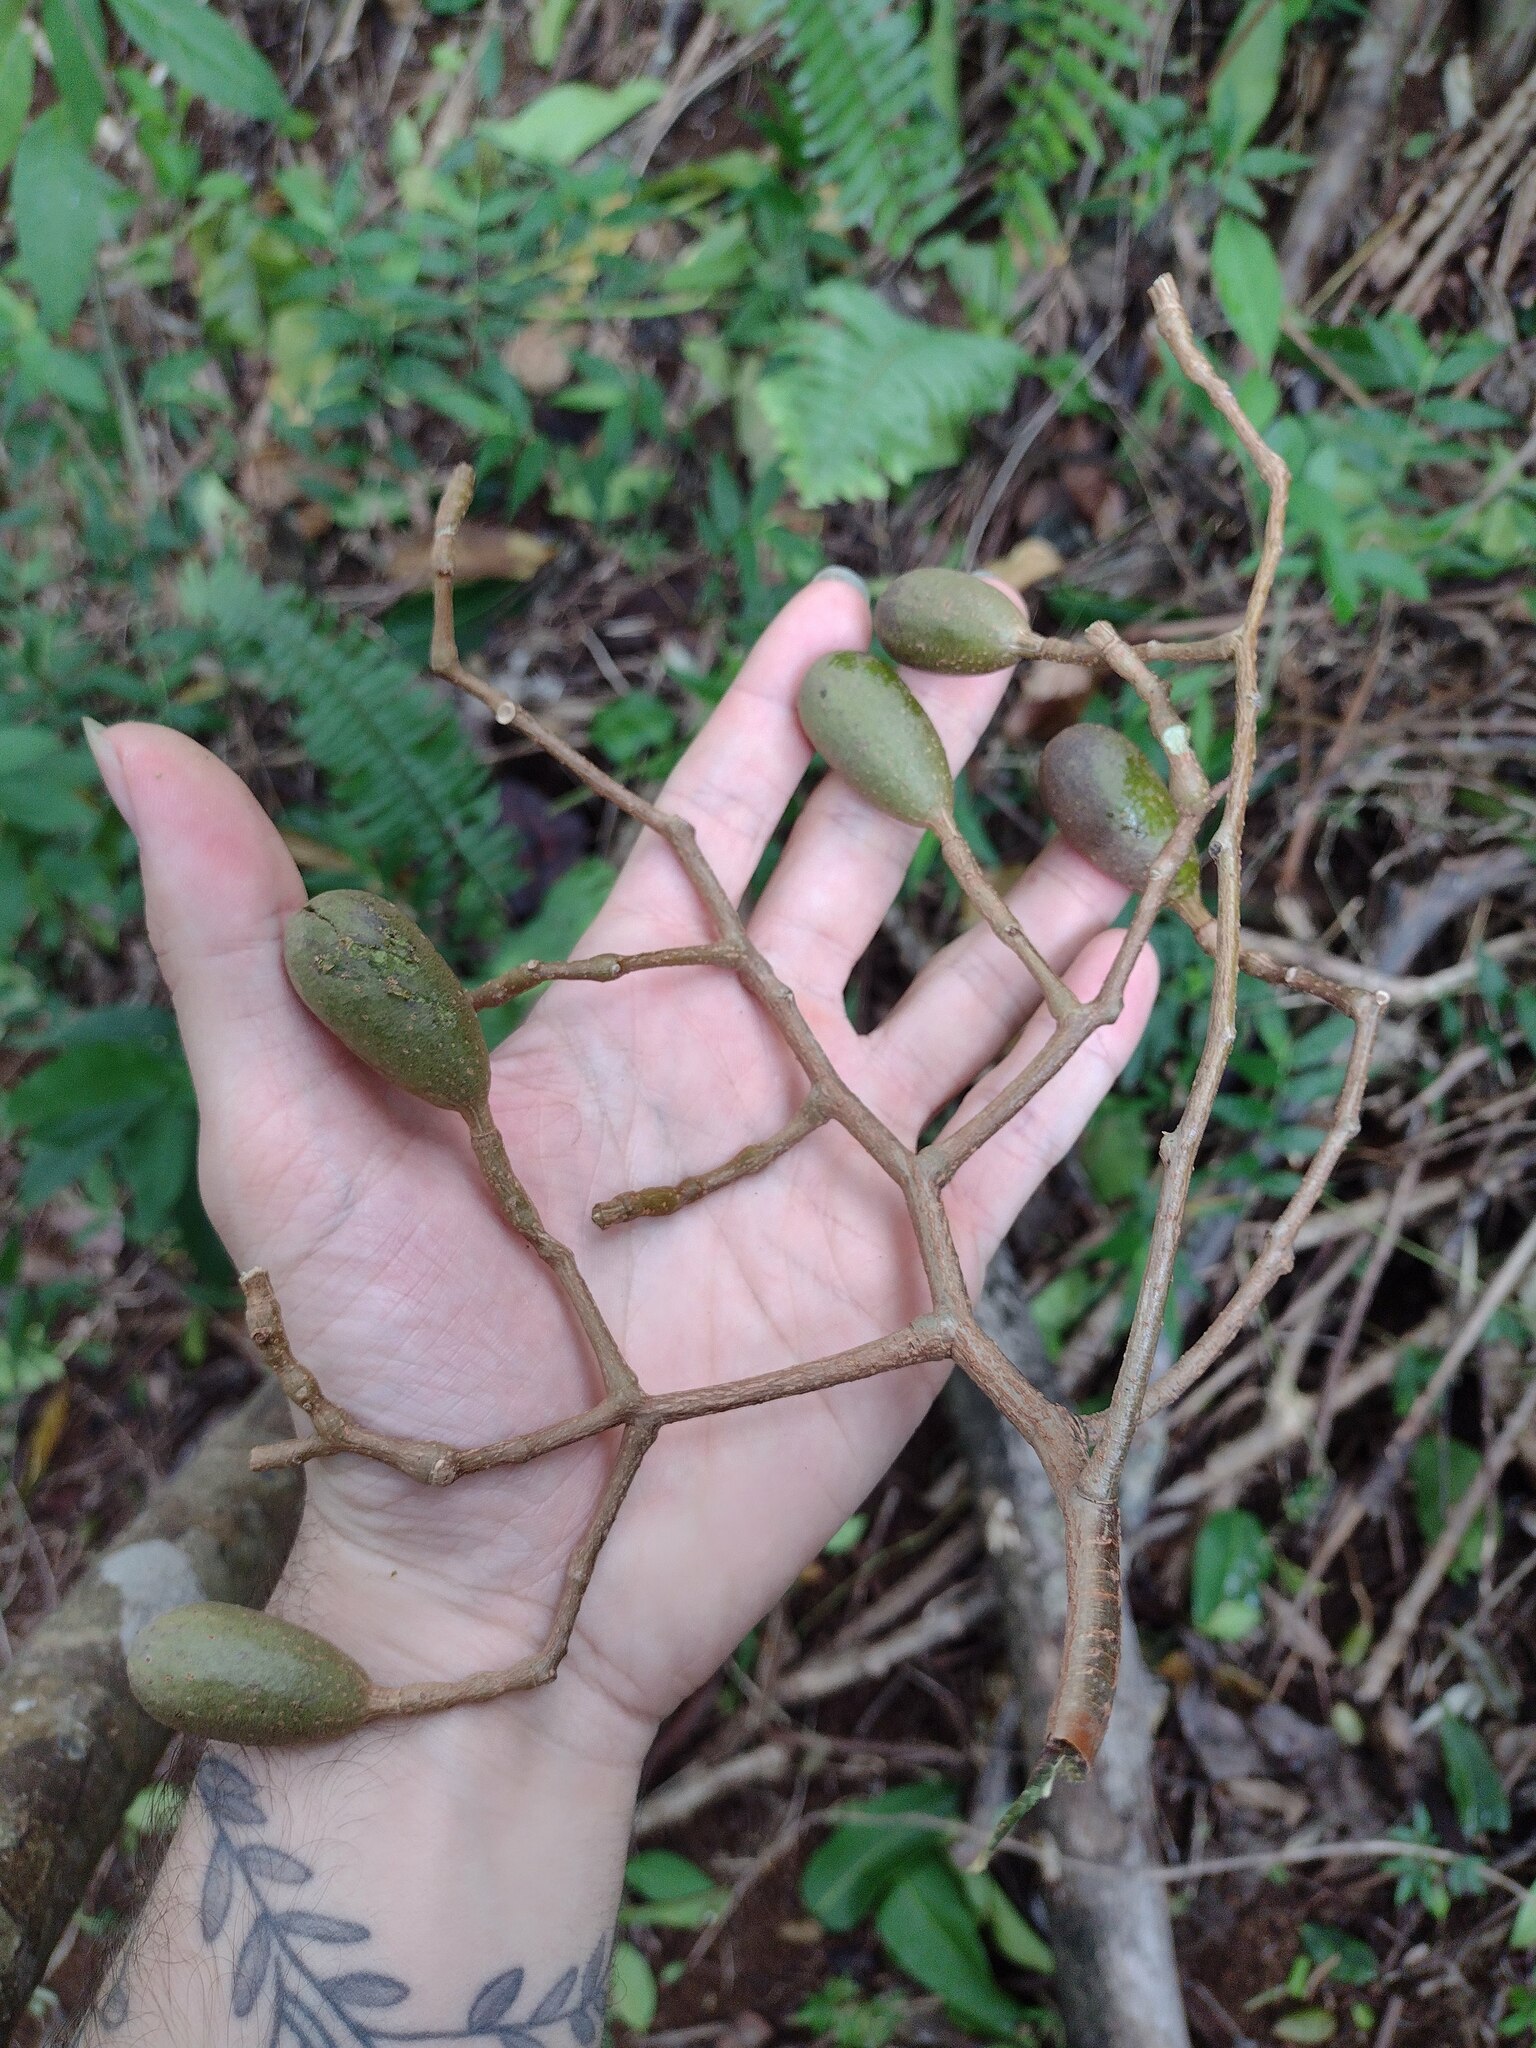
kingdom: Plantae
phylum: Tracheophyta
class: Magnoliopsida
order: Sapindales
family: Meliaceae
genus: Cedrela
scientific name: Cedrela odorata
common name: Red cedar
